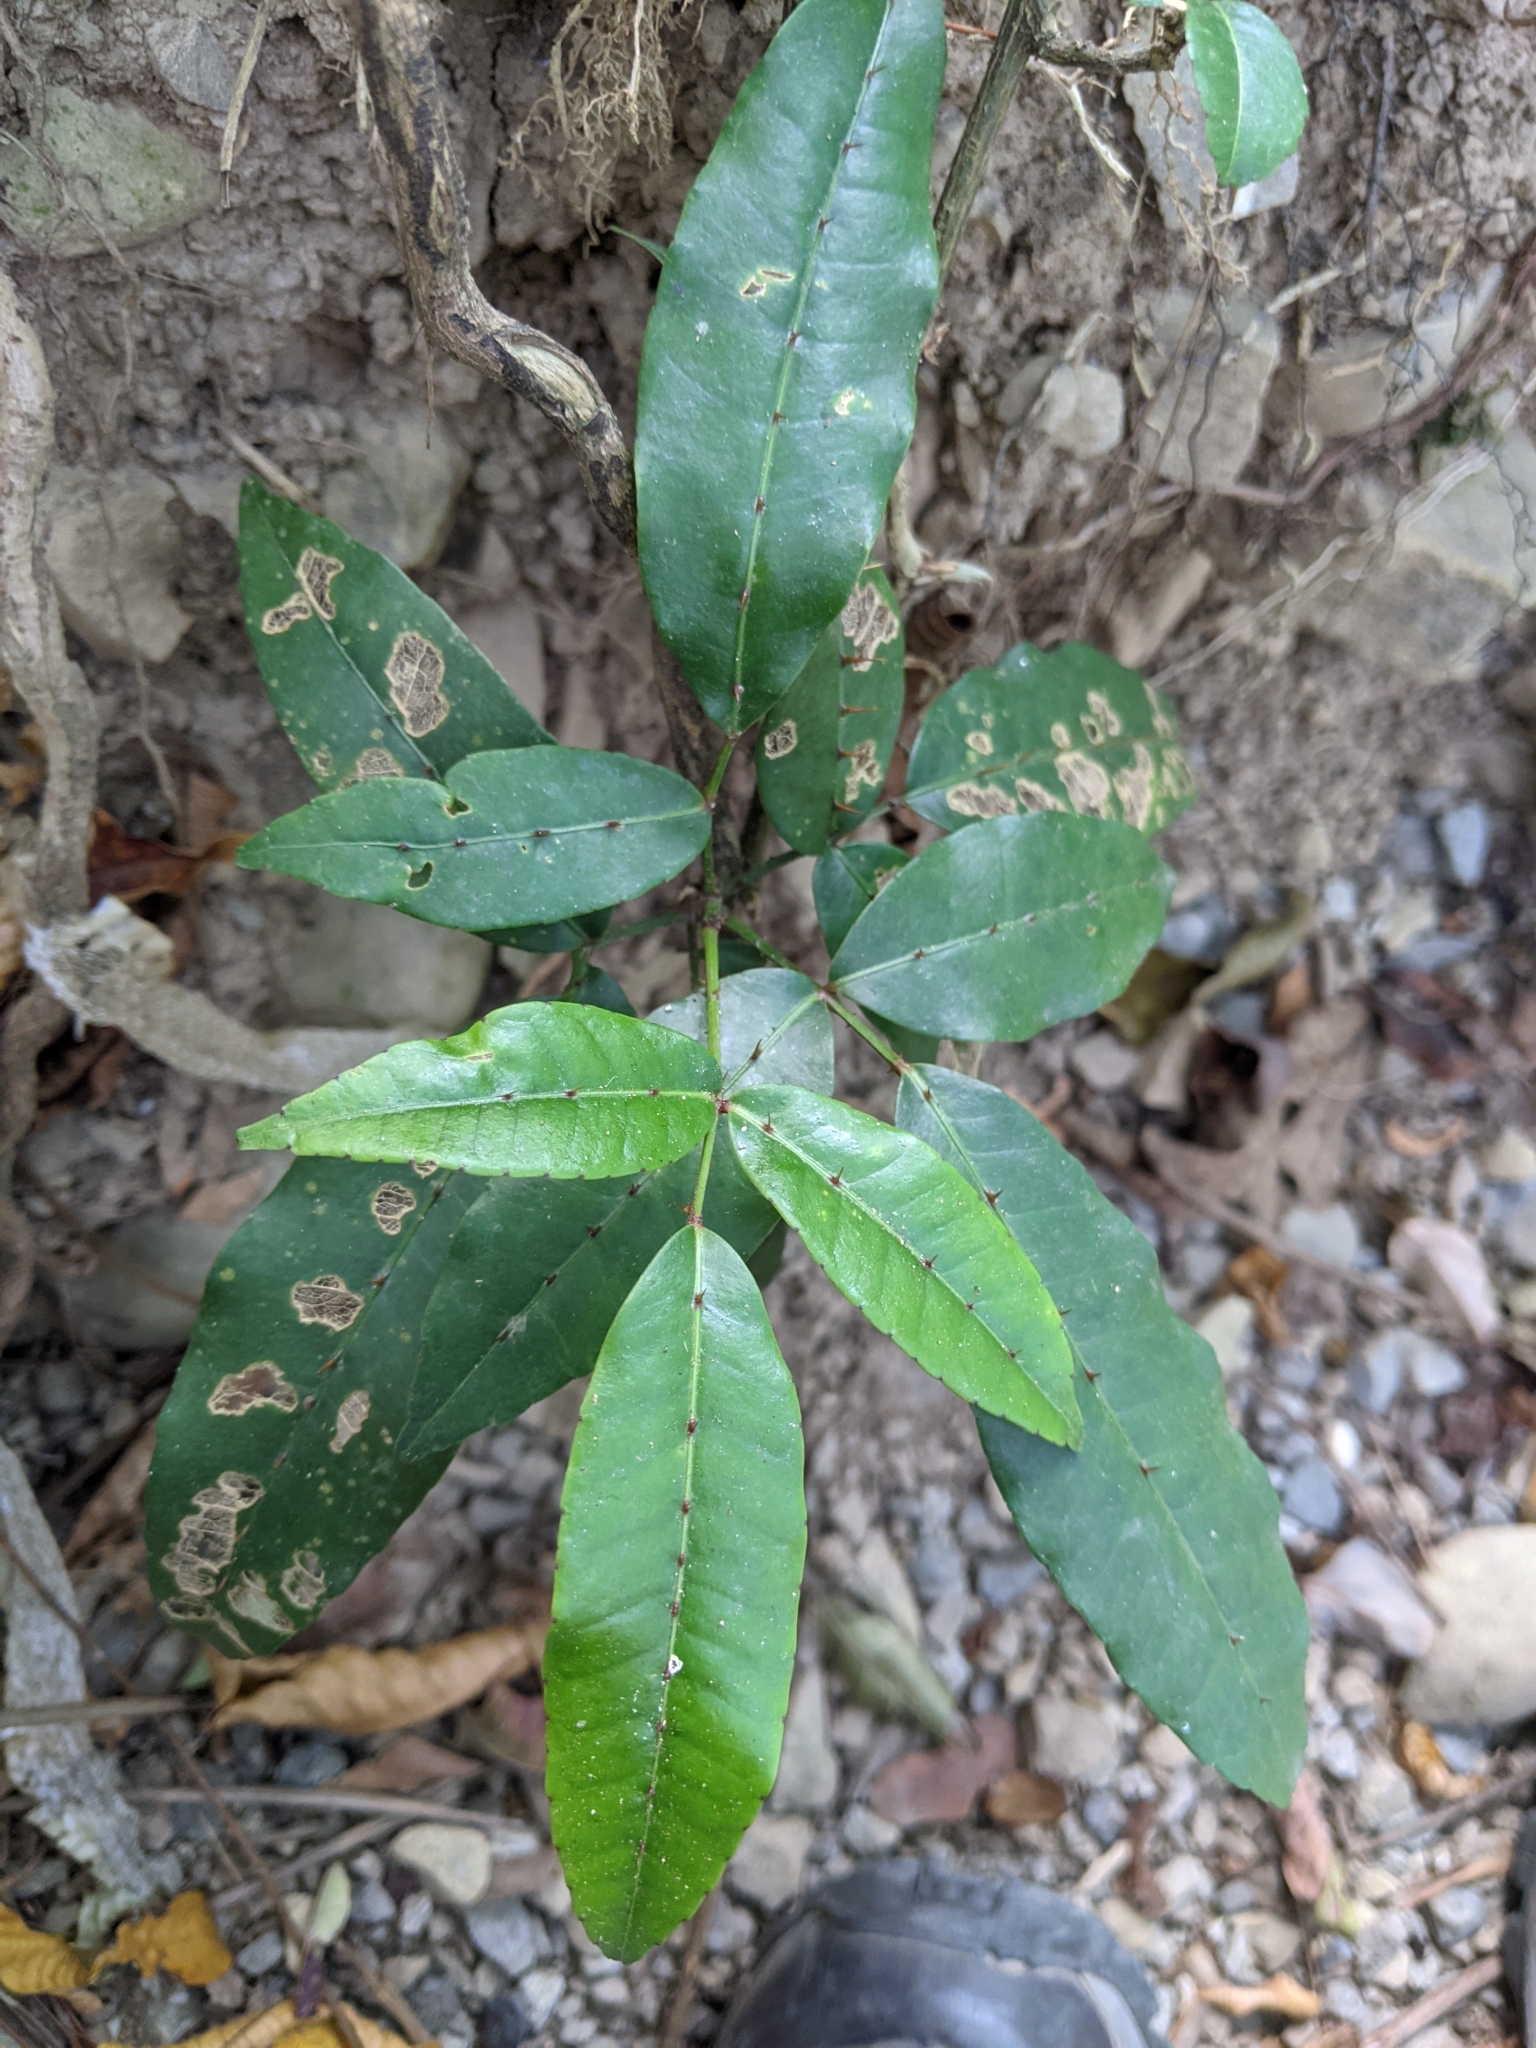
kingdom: Plantae
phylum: Tracheophyta
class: Magnoliopsida
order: Sapindales
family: Rutaceae
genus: Zanthoxylum
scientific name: Zanthoxylum nitidum
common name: Shiny-leaf prickly-ash
